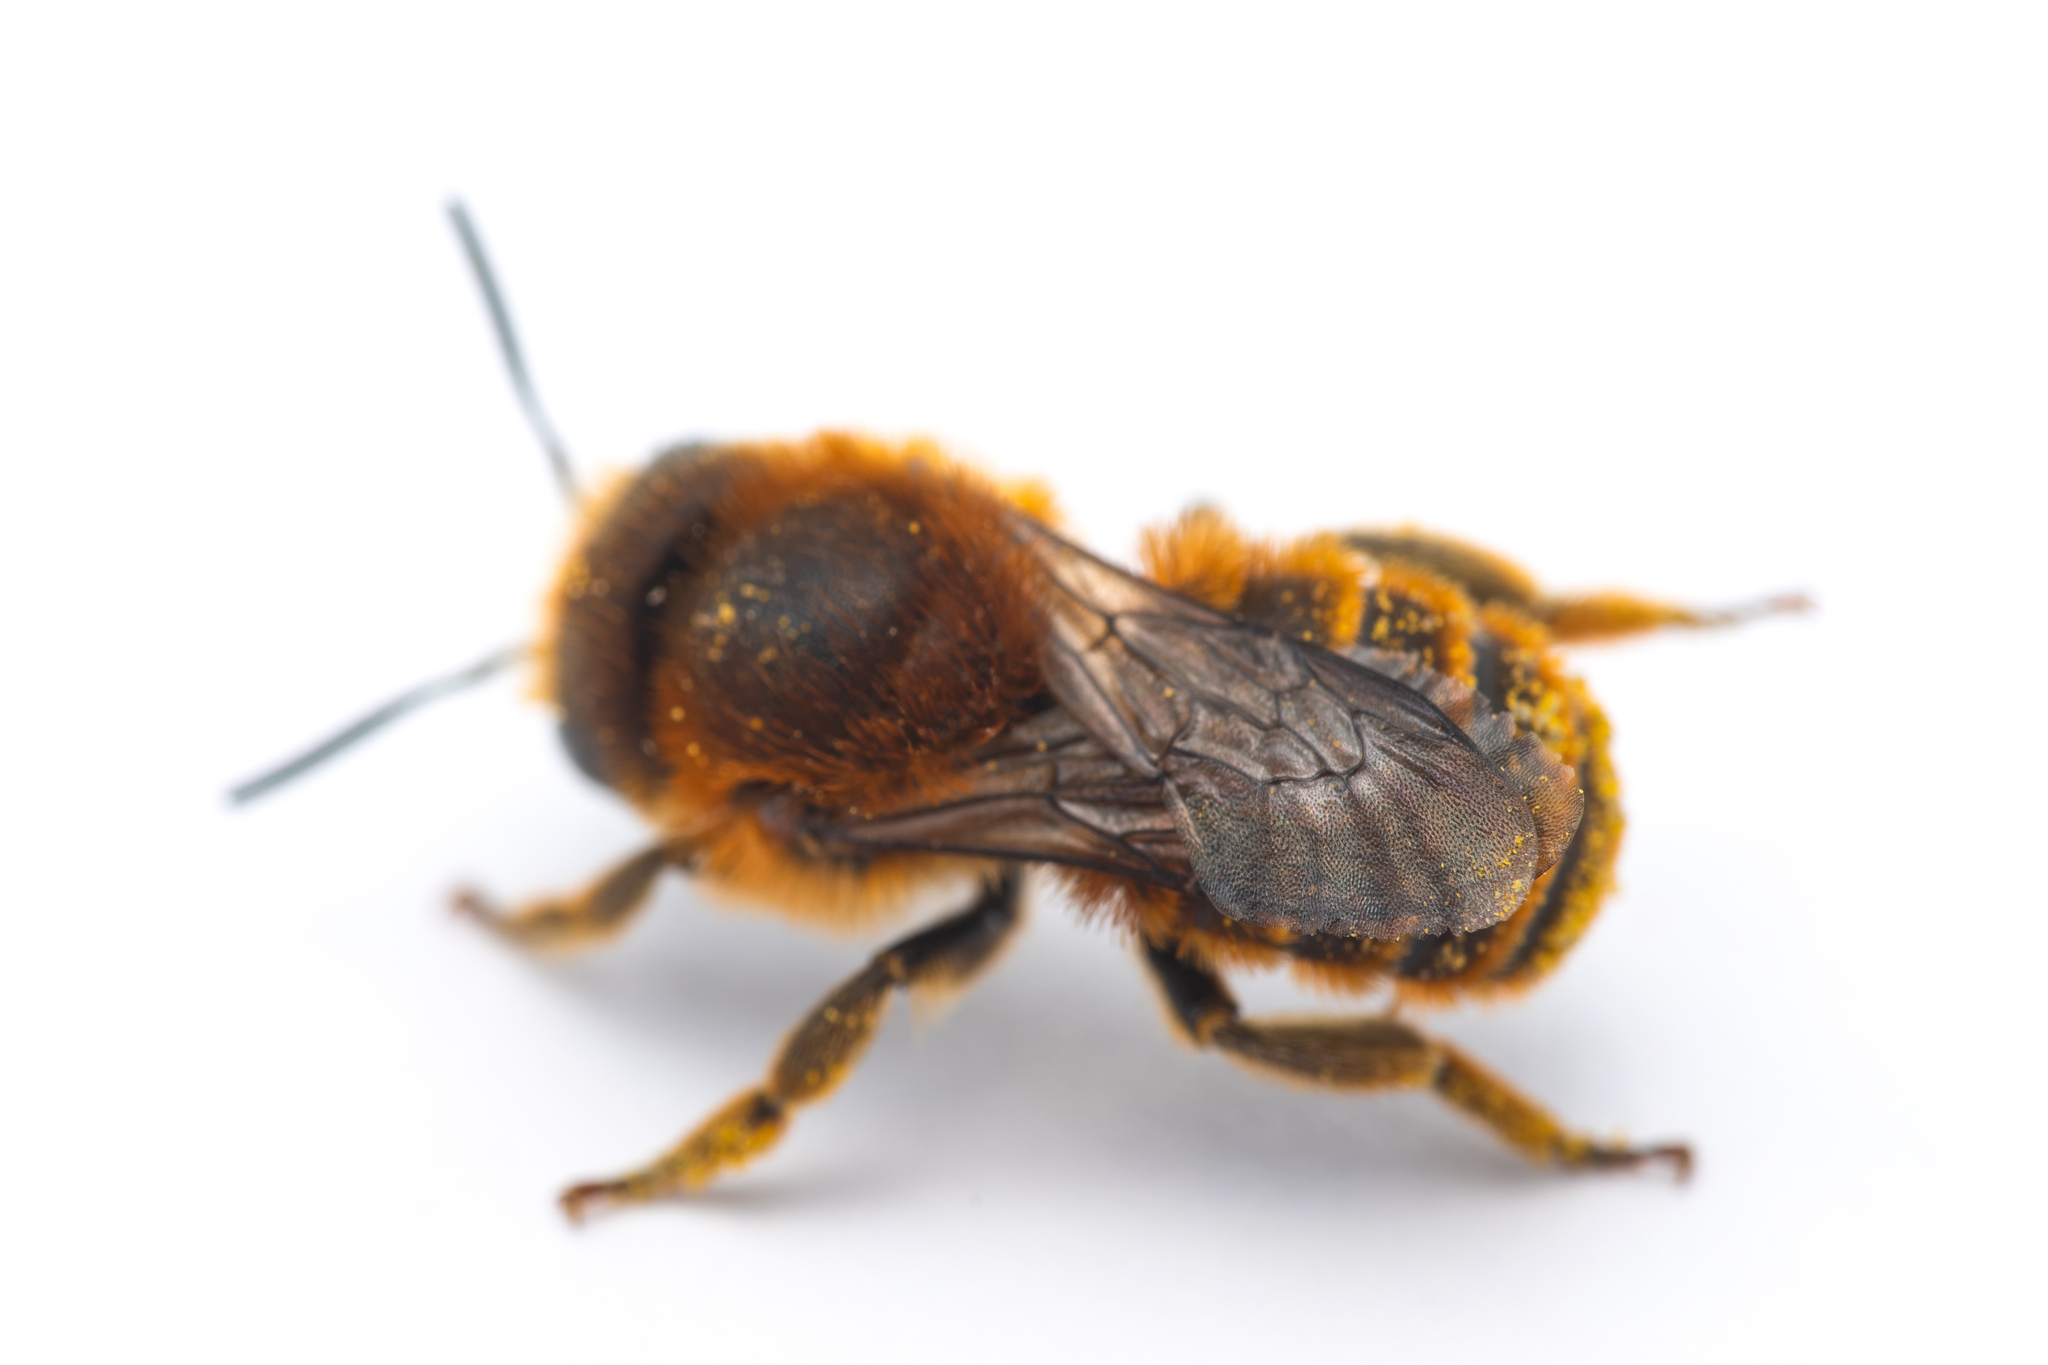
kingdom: Animalia
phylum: Arthropoda
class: Insecta
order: Hymenoptera
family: Megachilidae
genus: Osmia
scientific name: Osmia aurulenta
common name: Gold-fringed mason bee
